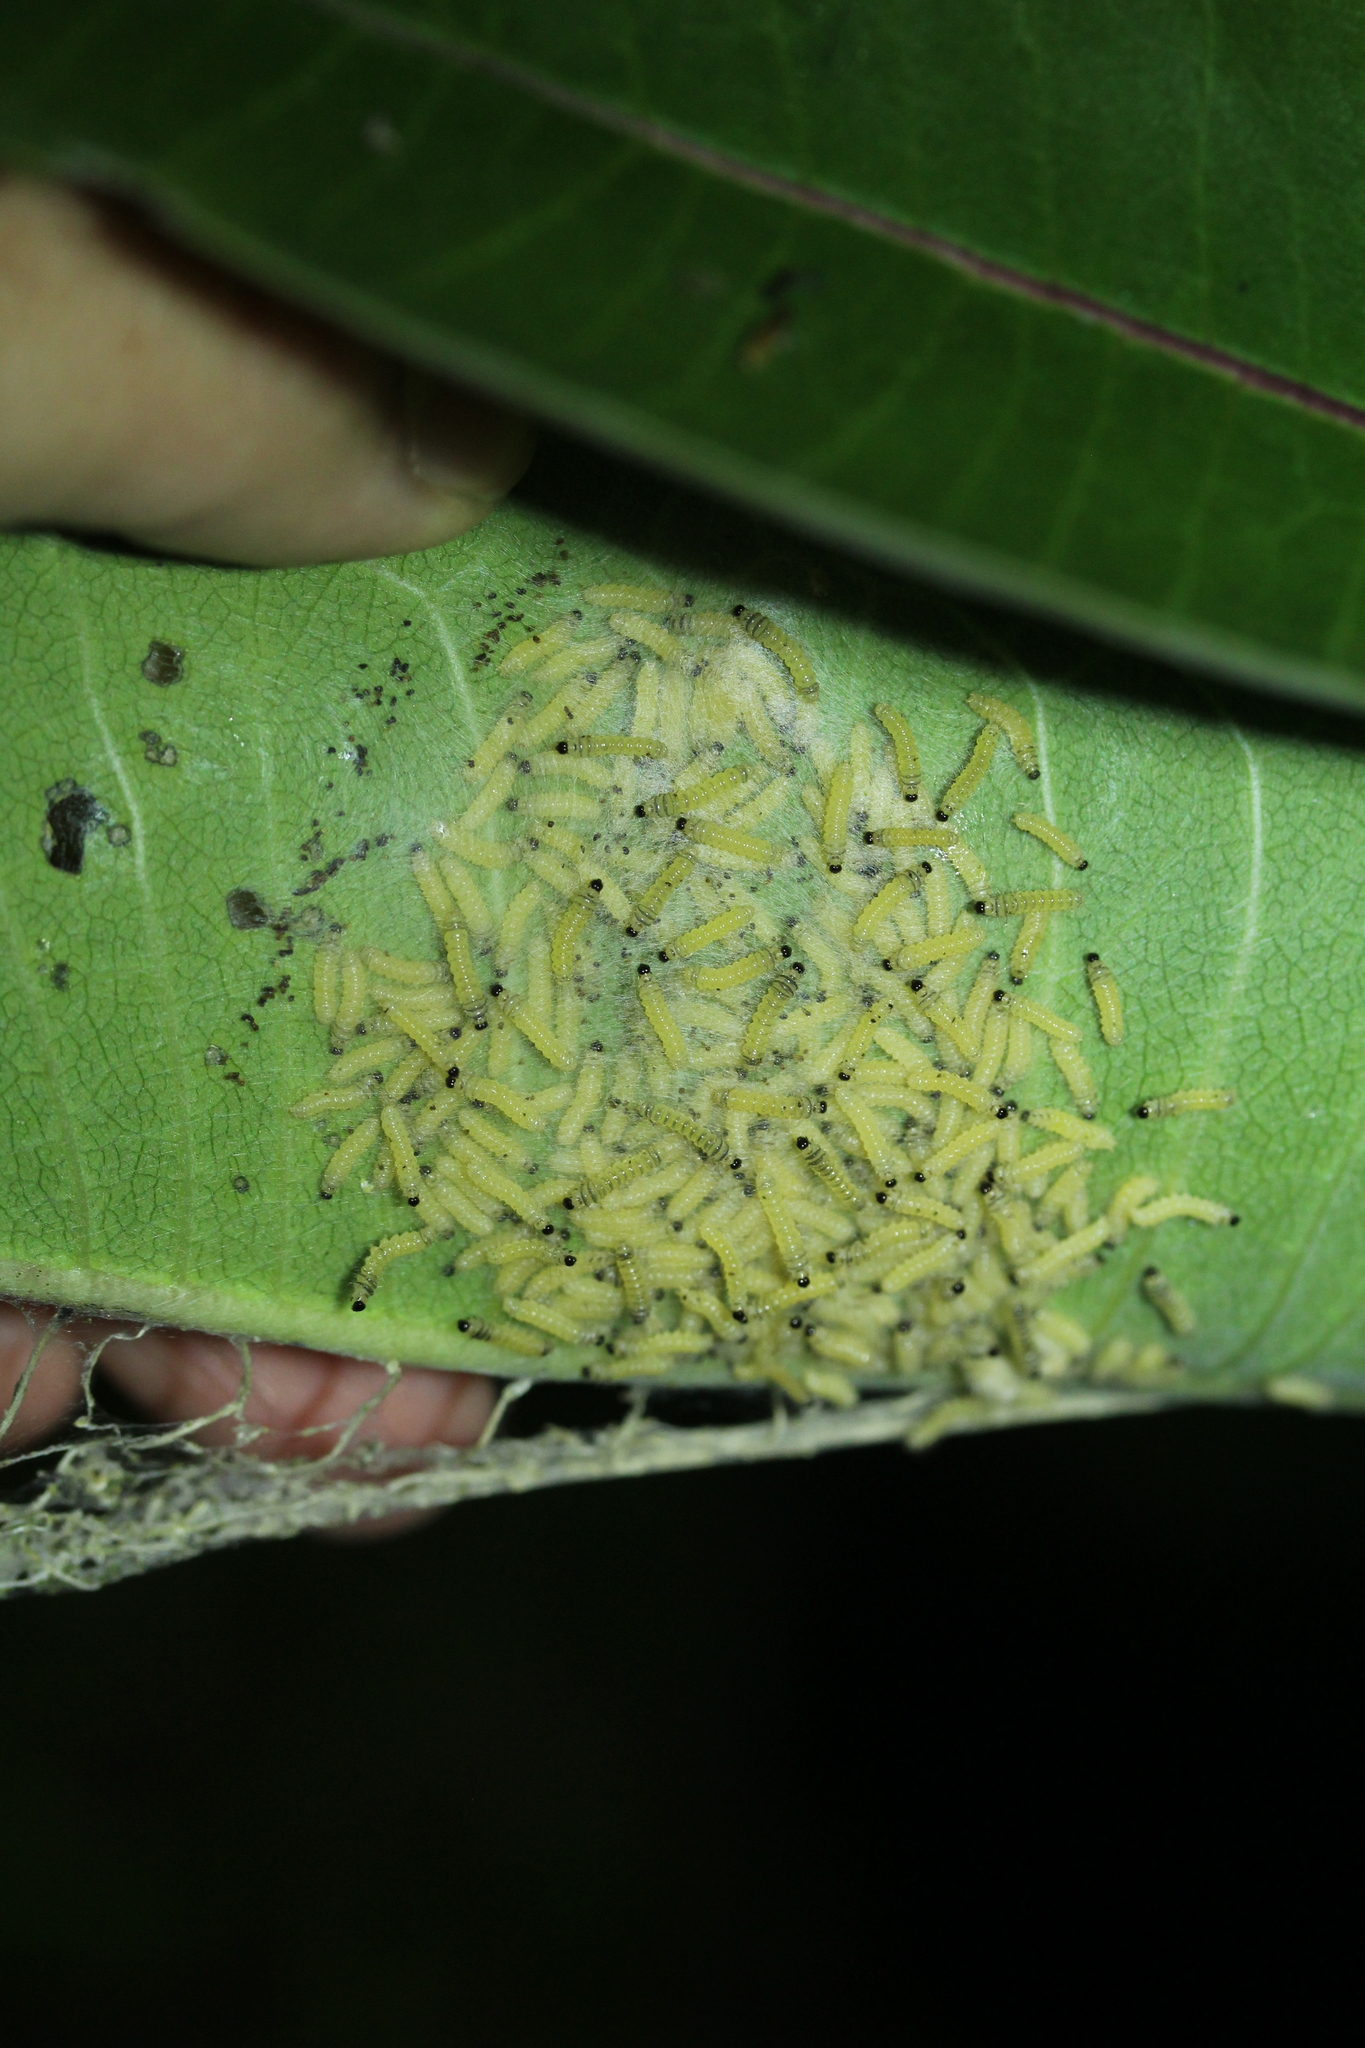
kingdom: Animalia
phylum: Arthropoda
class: Insecta
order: Lepidoptera
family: Erebidae
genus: Euchaetes
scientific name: Euchaetes egle
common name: Milkweed tussock moth
